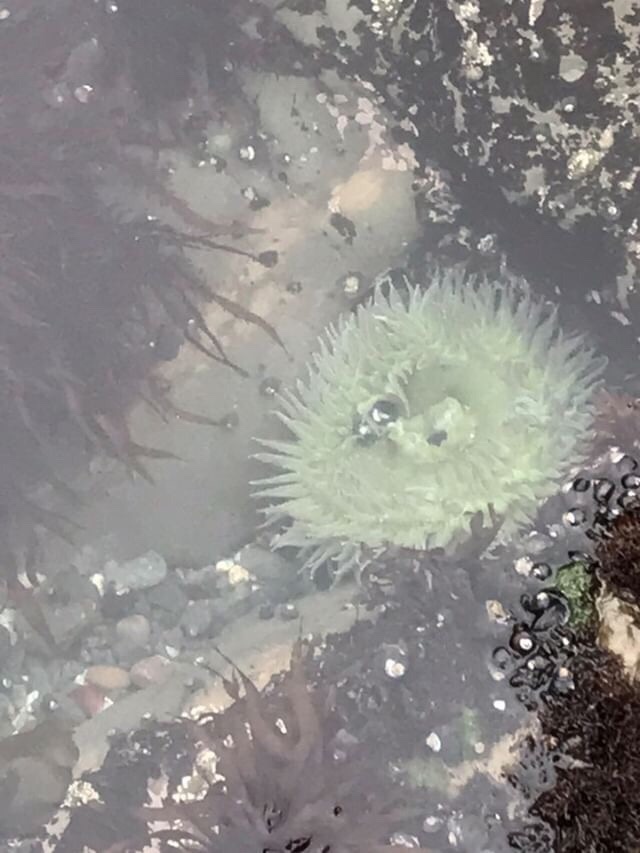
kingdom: Animalia
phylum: Cnidaria
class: Anthozoa
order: Actiniaria
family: Actiniidae
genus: Anthopleura
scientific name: Anthopleura xanthogrammica
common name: Giant green anemone
